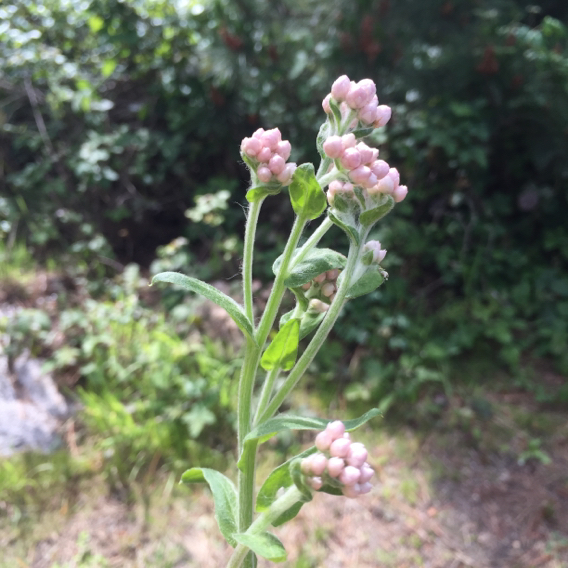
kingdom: Plantae
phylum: Tracheophyta
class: Magnoliopsida
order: Asterales
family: Asteraceae
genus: Pseudognaphalium
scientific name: Pseudognaphalium californicum
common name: California rabbit-tobacco
